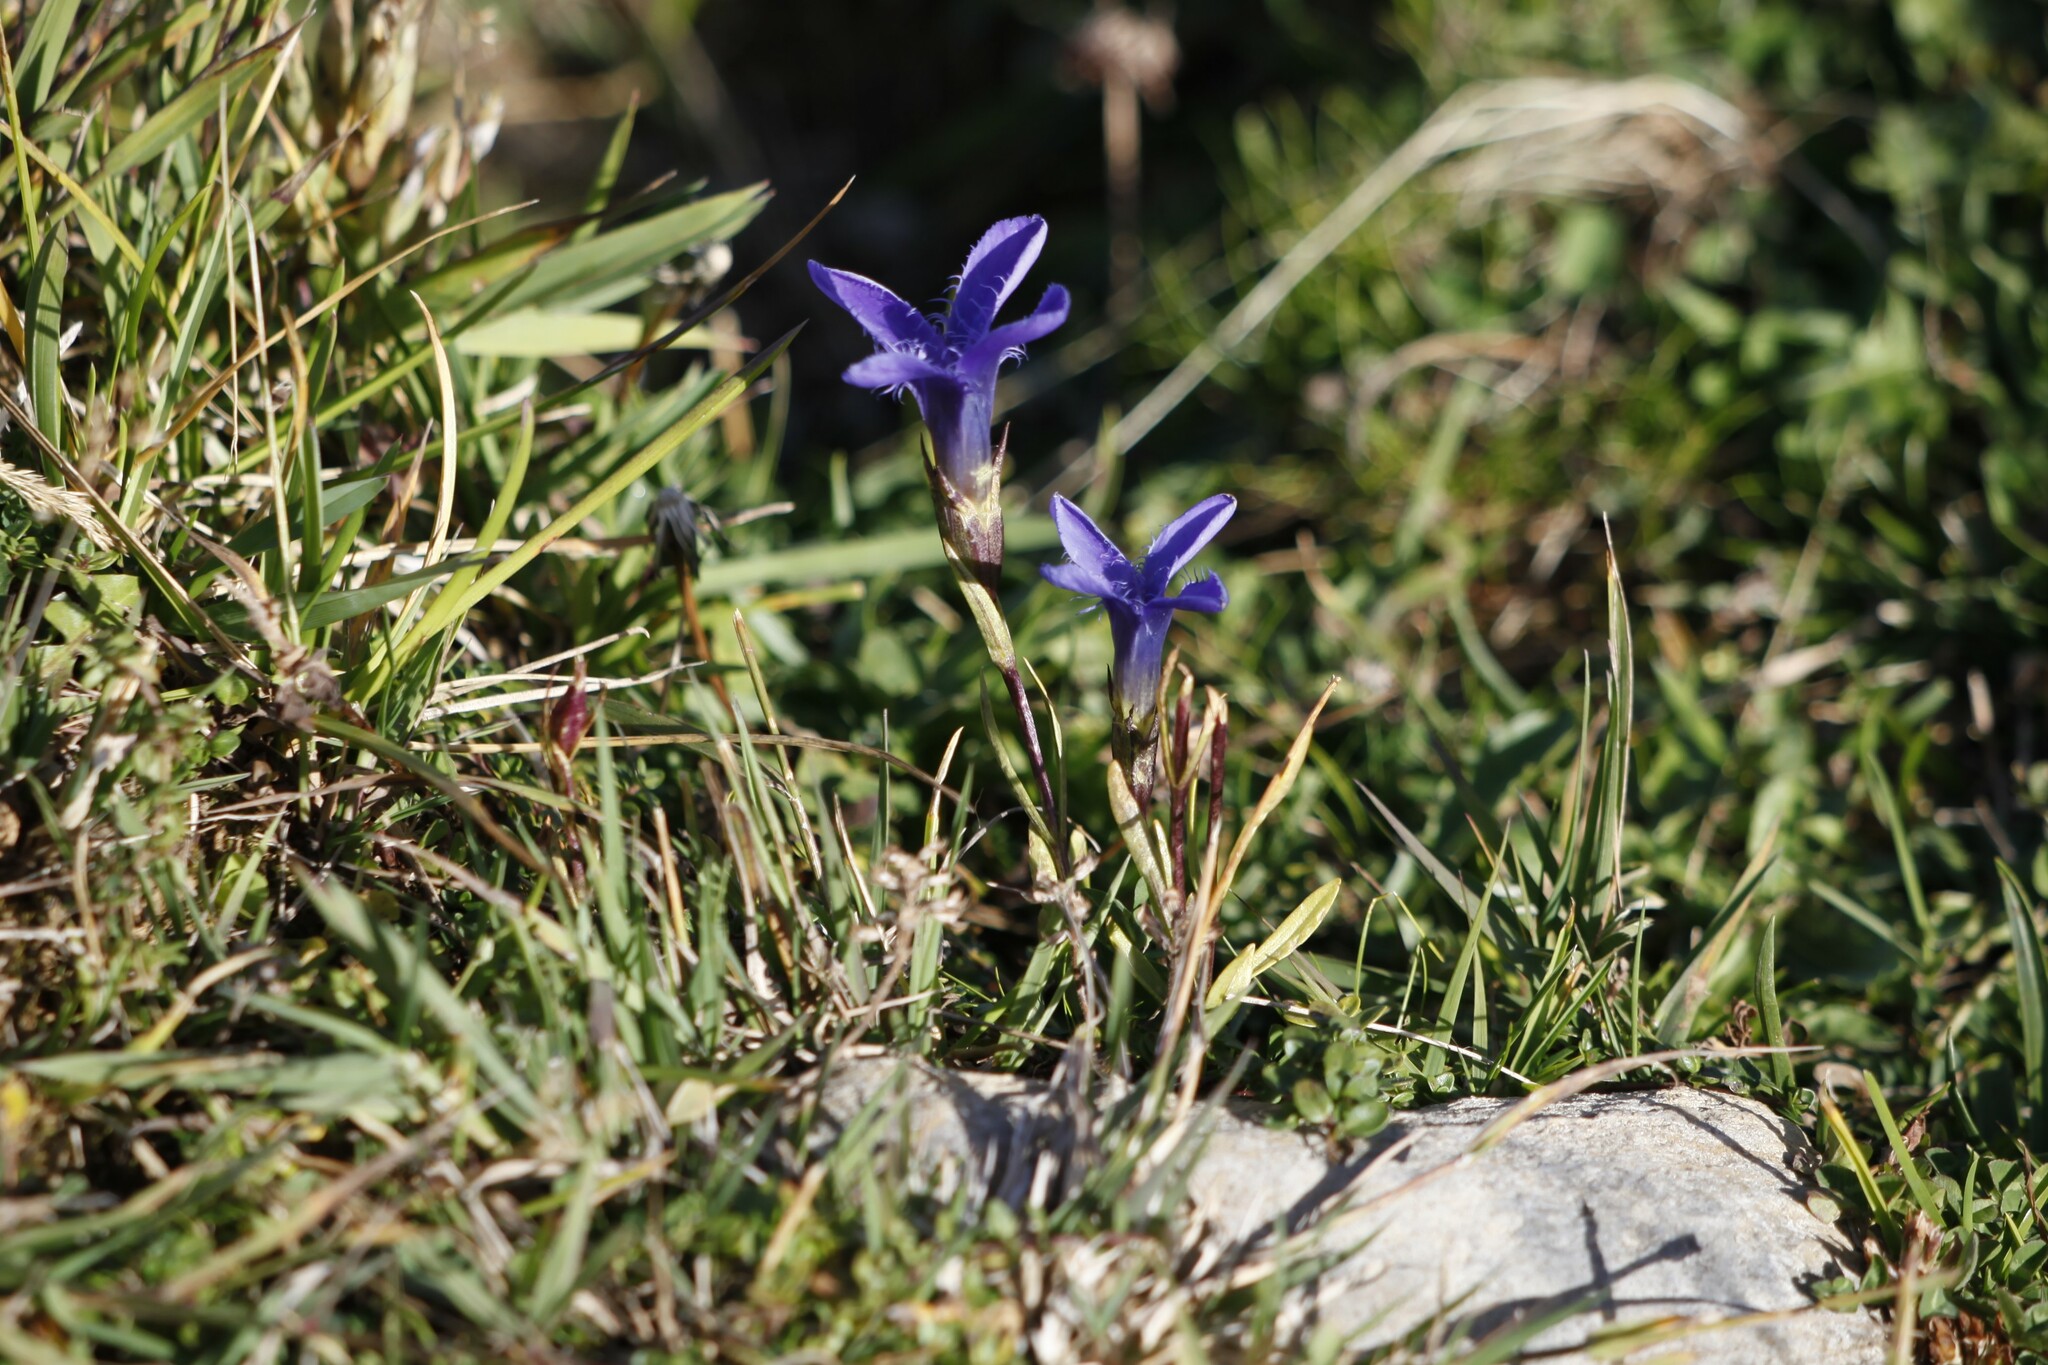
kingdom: Plantae
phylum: Tracheophyta
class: Magnoliopsida
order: Gentianales
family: Gentianaceae
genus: Gentianopsis
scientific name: Gentianopsis ciliata
